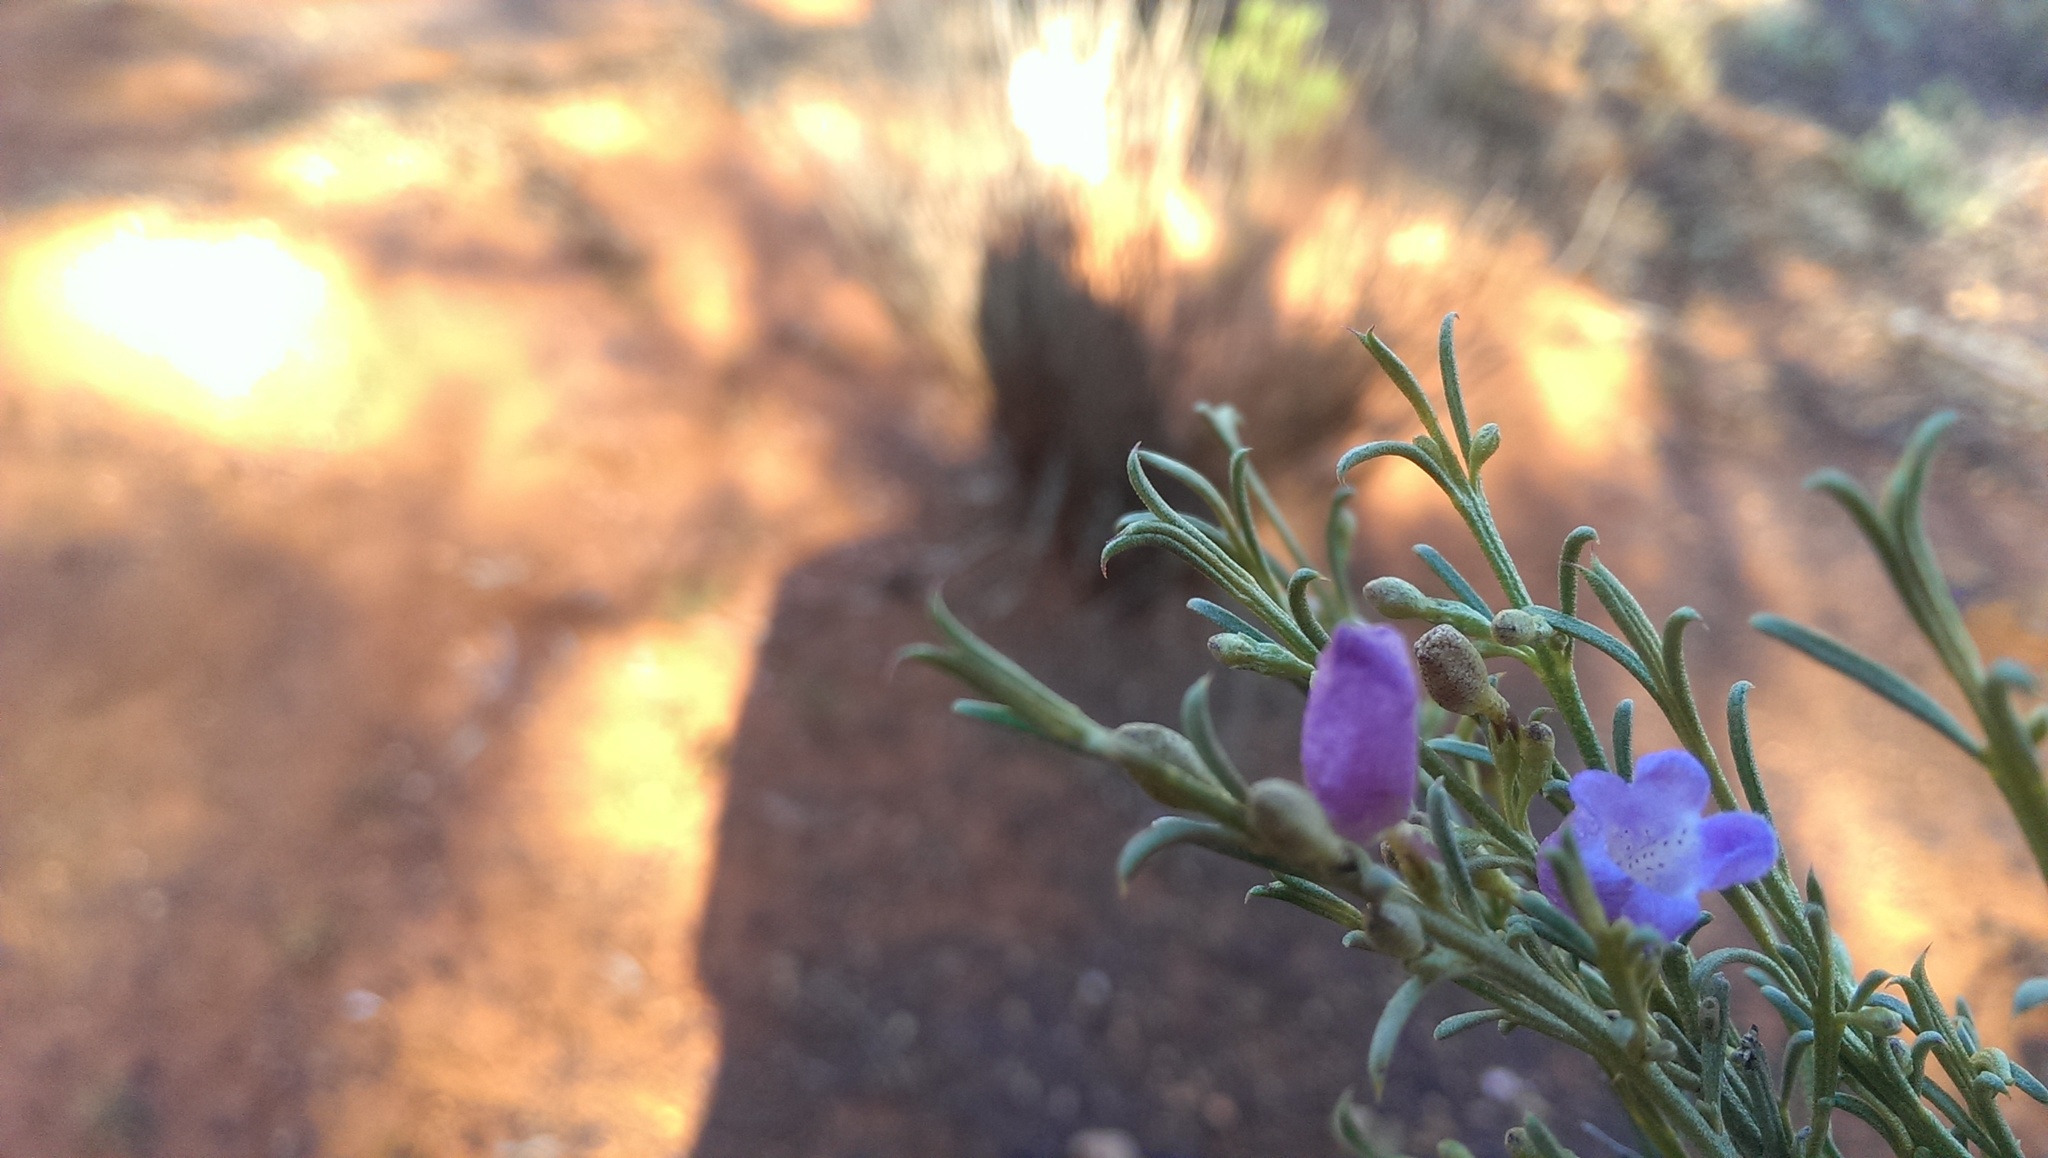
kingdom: Plantae
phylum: Tracheophyta
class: Magnoliopsida
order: Lamiales
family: Scrophulariaceae
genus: Eremophila
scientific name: Eremophila scoparia
